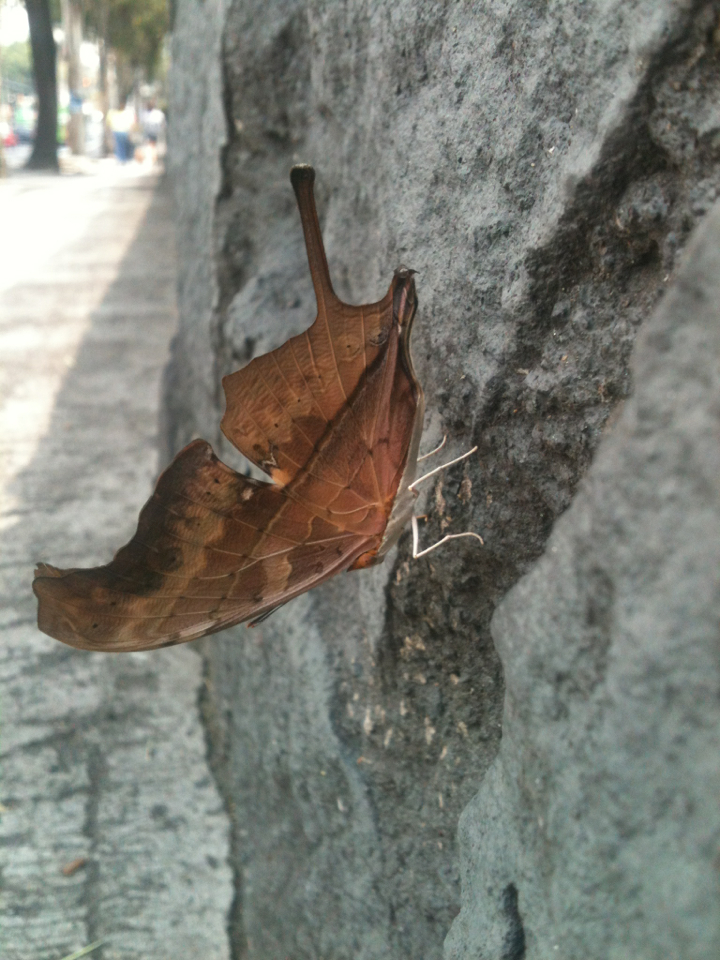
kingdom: Animalia
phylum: Arthropoda
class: Insecta
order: Lepidoptera
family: Nymphalidae
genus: Marpesia
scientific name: Marpesia petreus
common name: Red dagger wing
